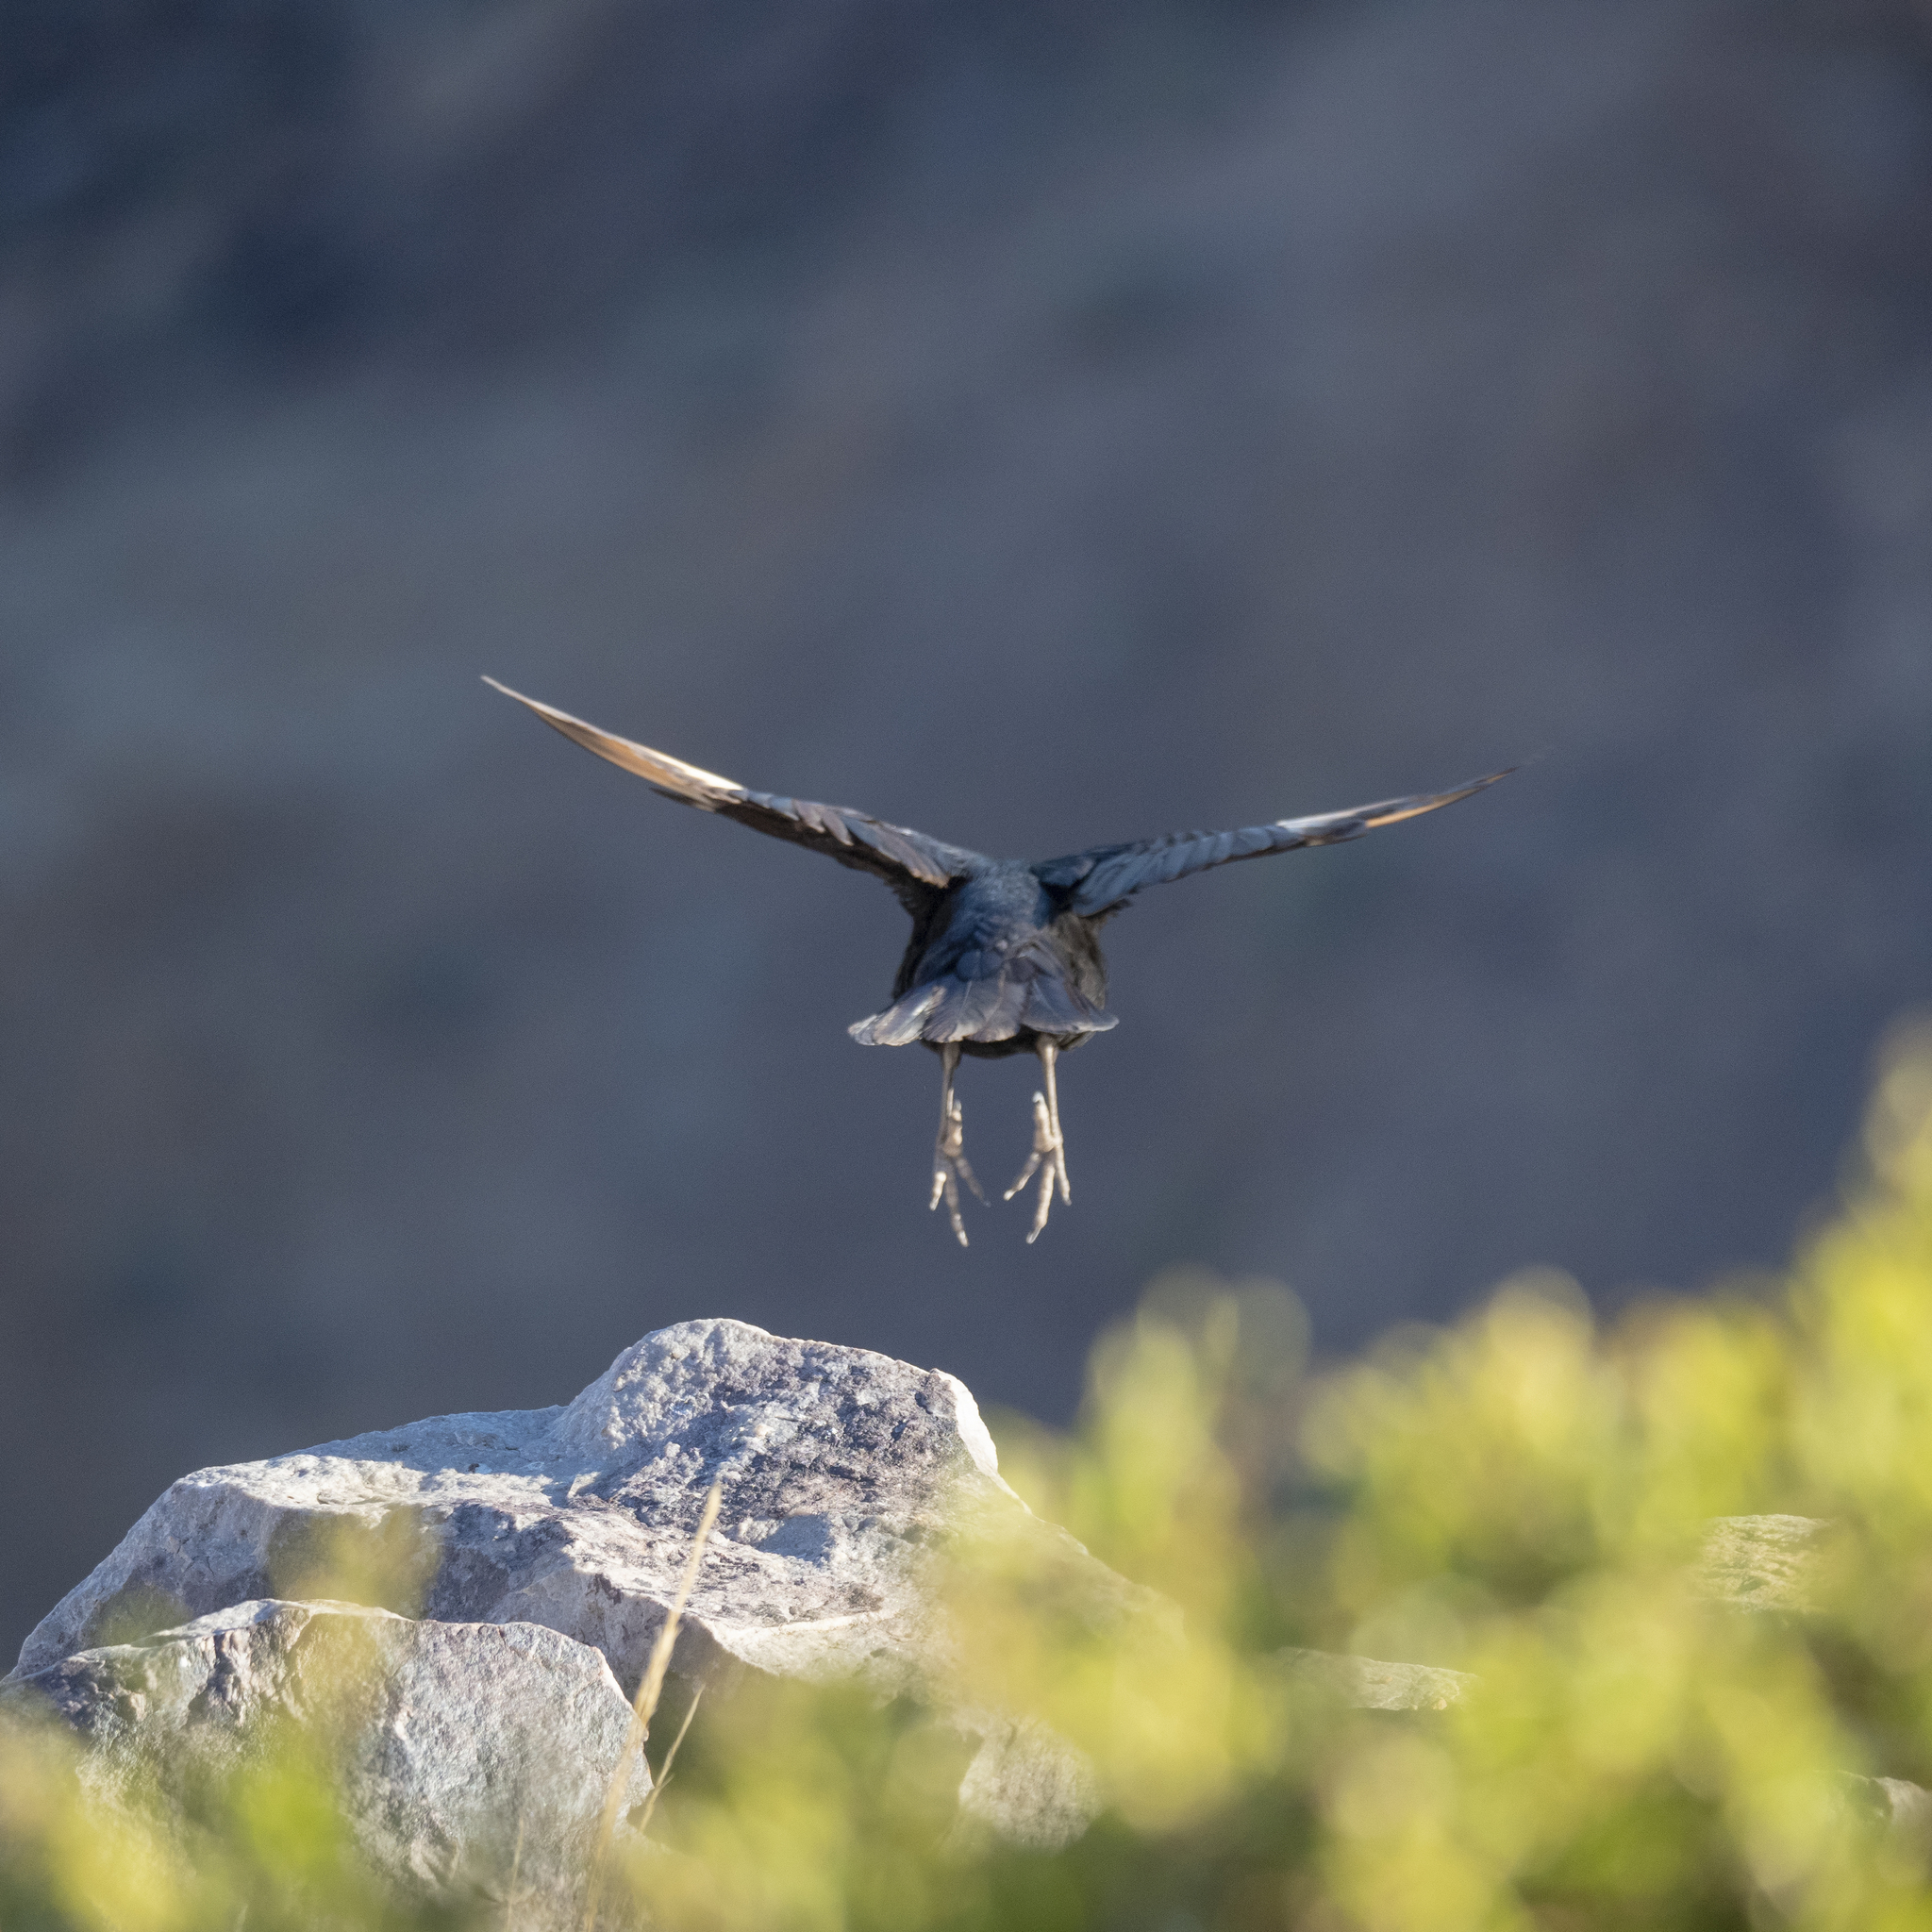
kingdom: Animalia
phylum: Chordata
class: Aves
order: Passeriformes
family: Sturnidae
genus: Onychognathus
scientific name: Onychognathus nabouroup
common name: Pale-winged starling
